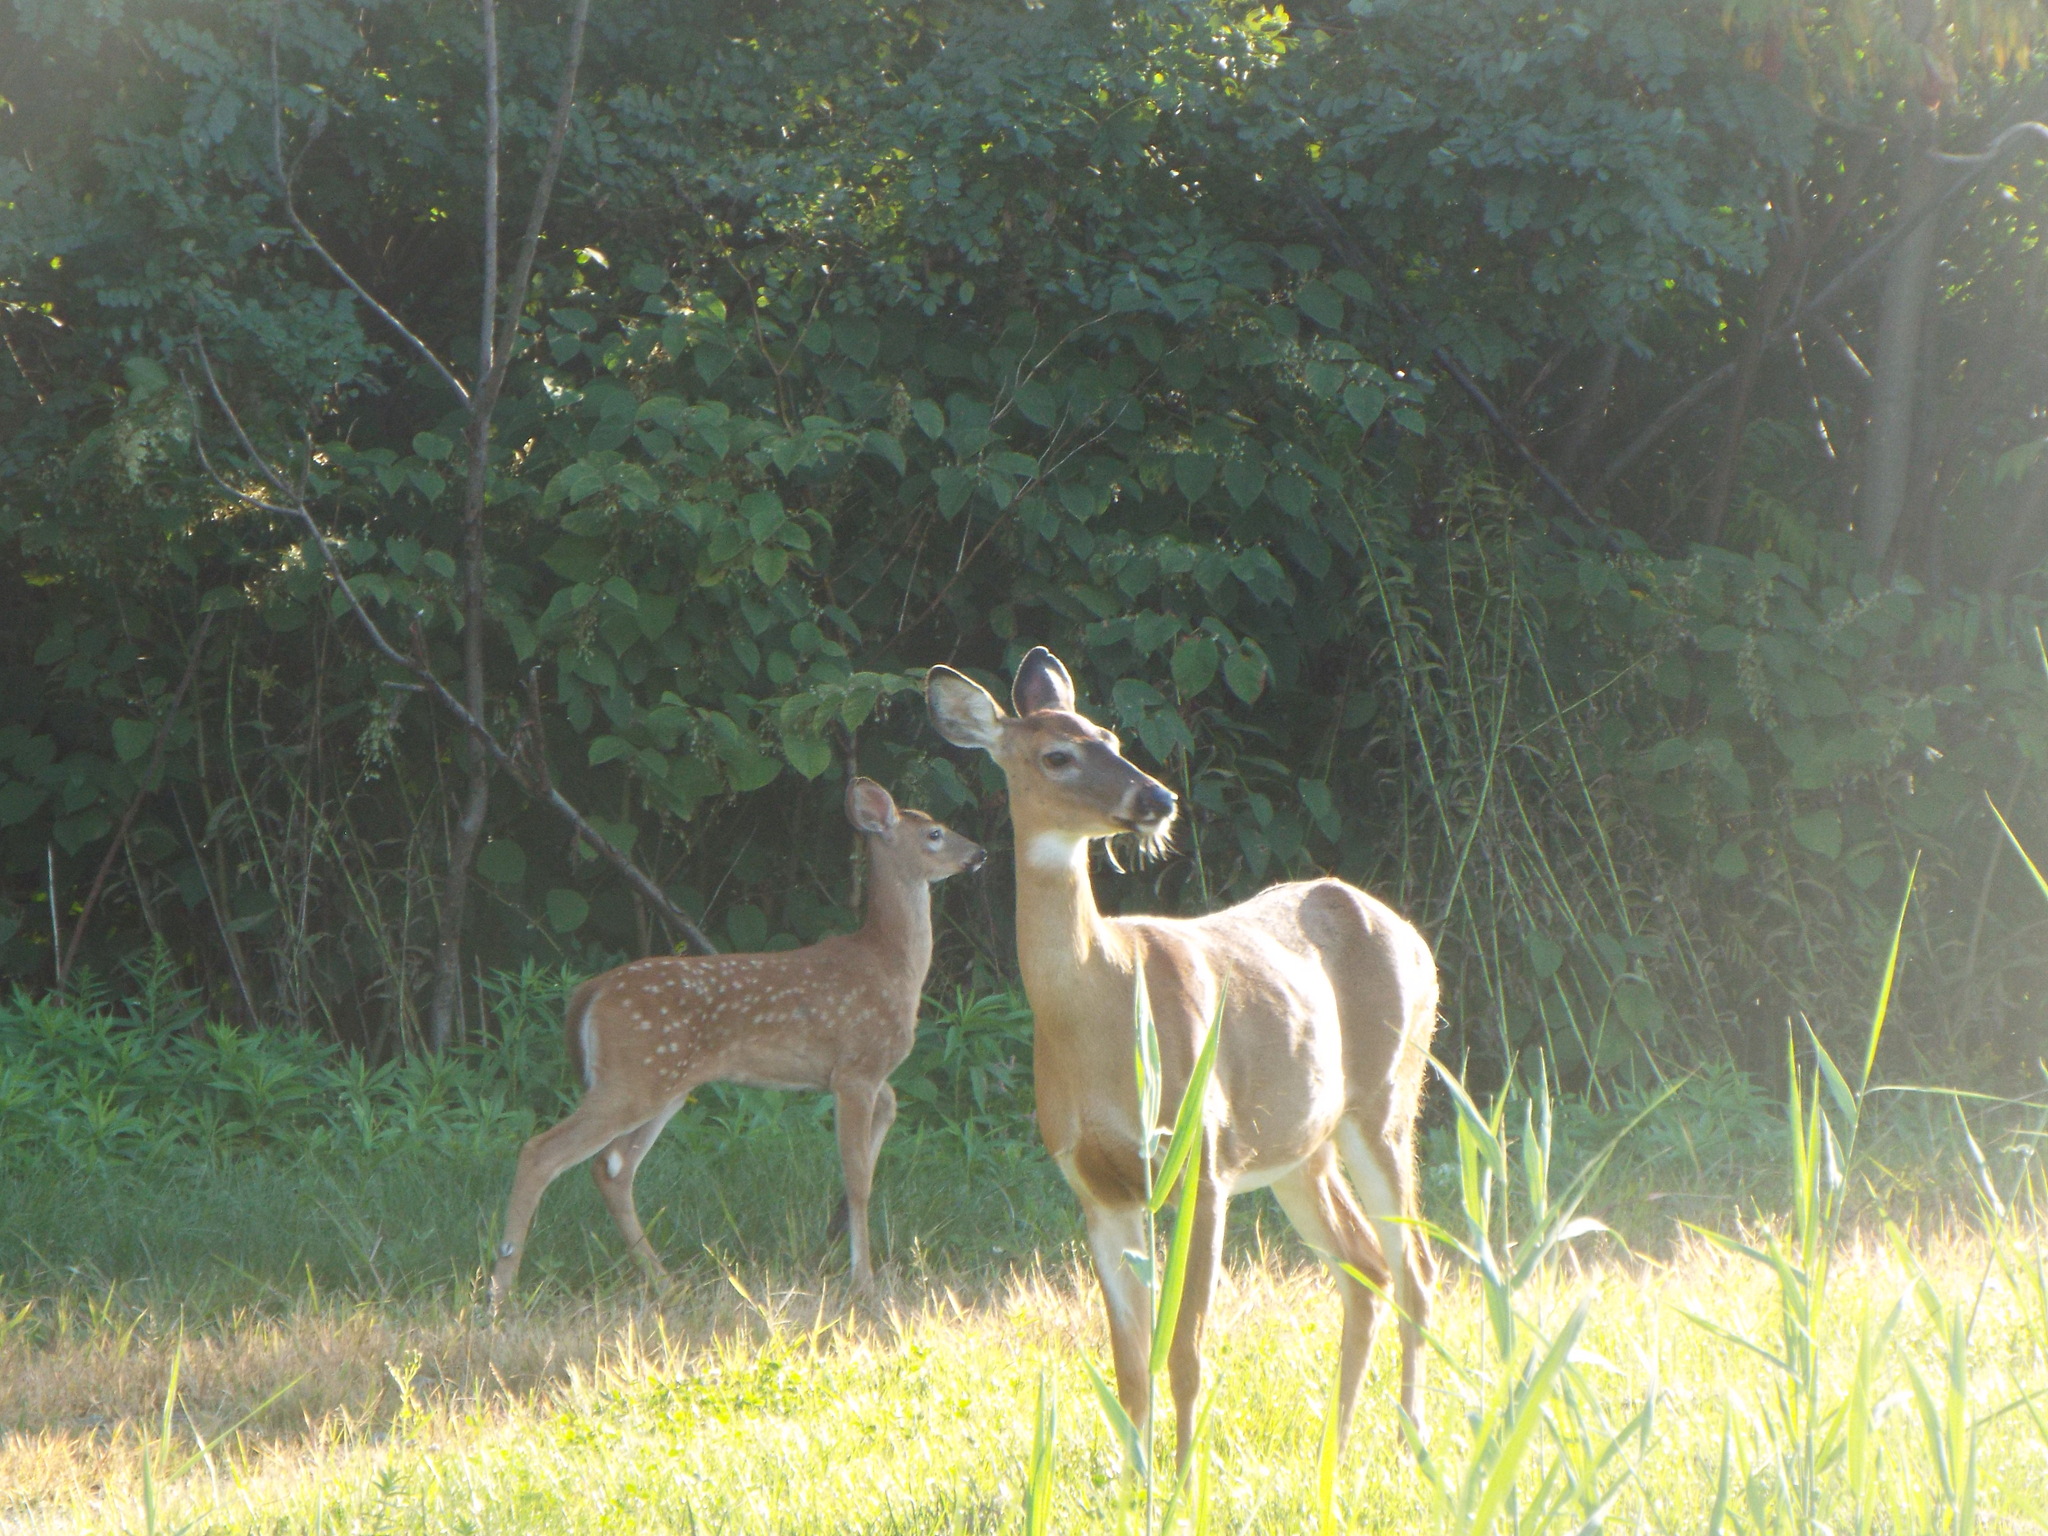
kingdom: Animalia
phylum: Chordata
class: Mammalia
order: Artiodactyla
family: Cervidae
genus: Odocoileus
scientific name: Odocoileus virginianus
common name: White-tailed deer
